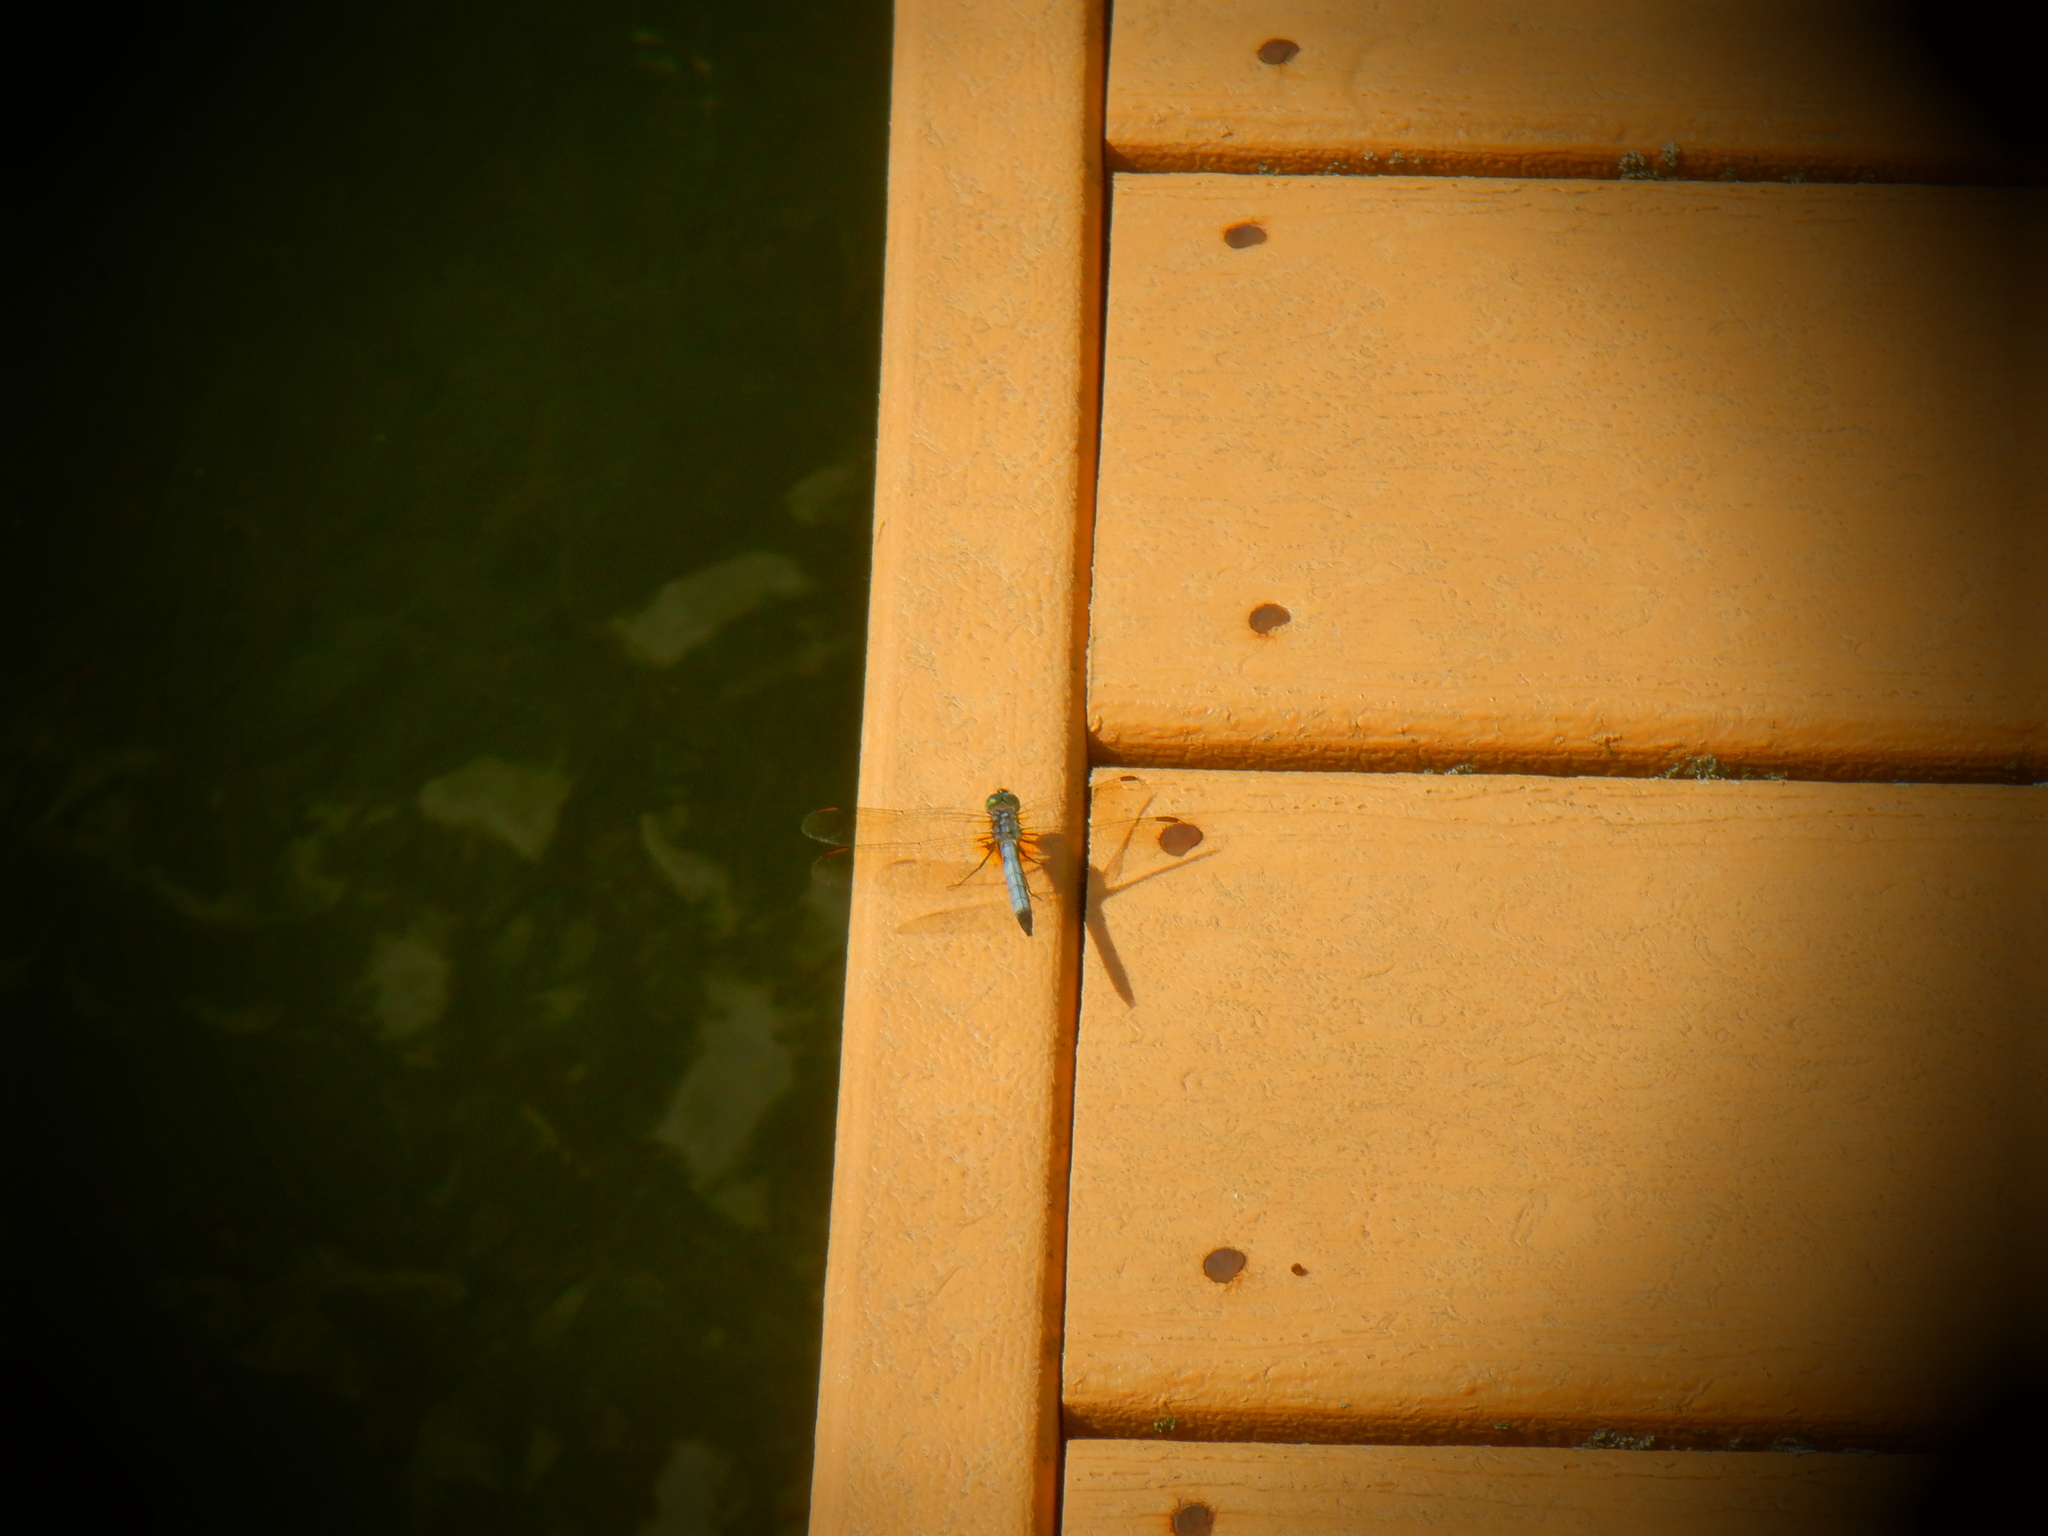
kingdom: Animalia
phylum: Arthropoda
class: Insecta
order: Odonata
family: Libellulidae
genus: Pachydiplax
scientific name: Pachydiplax longipennis
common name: Blue dasher
